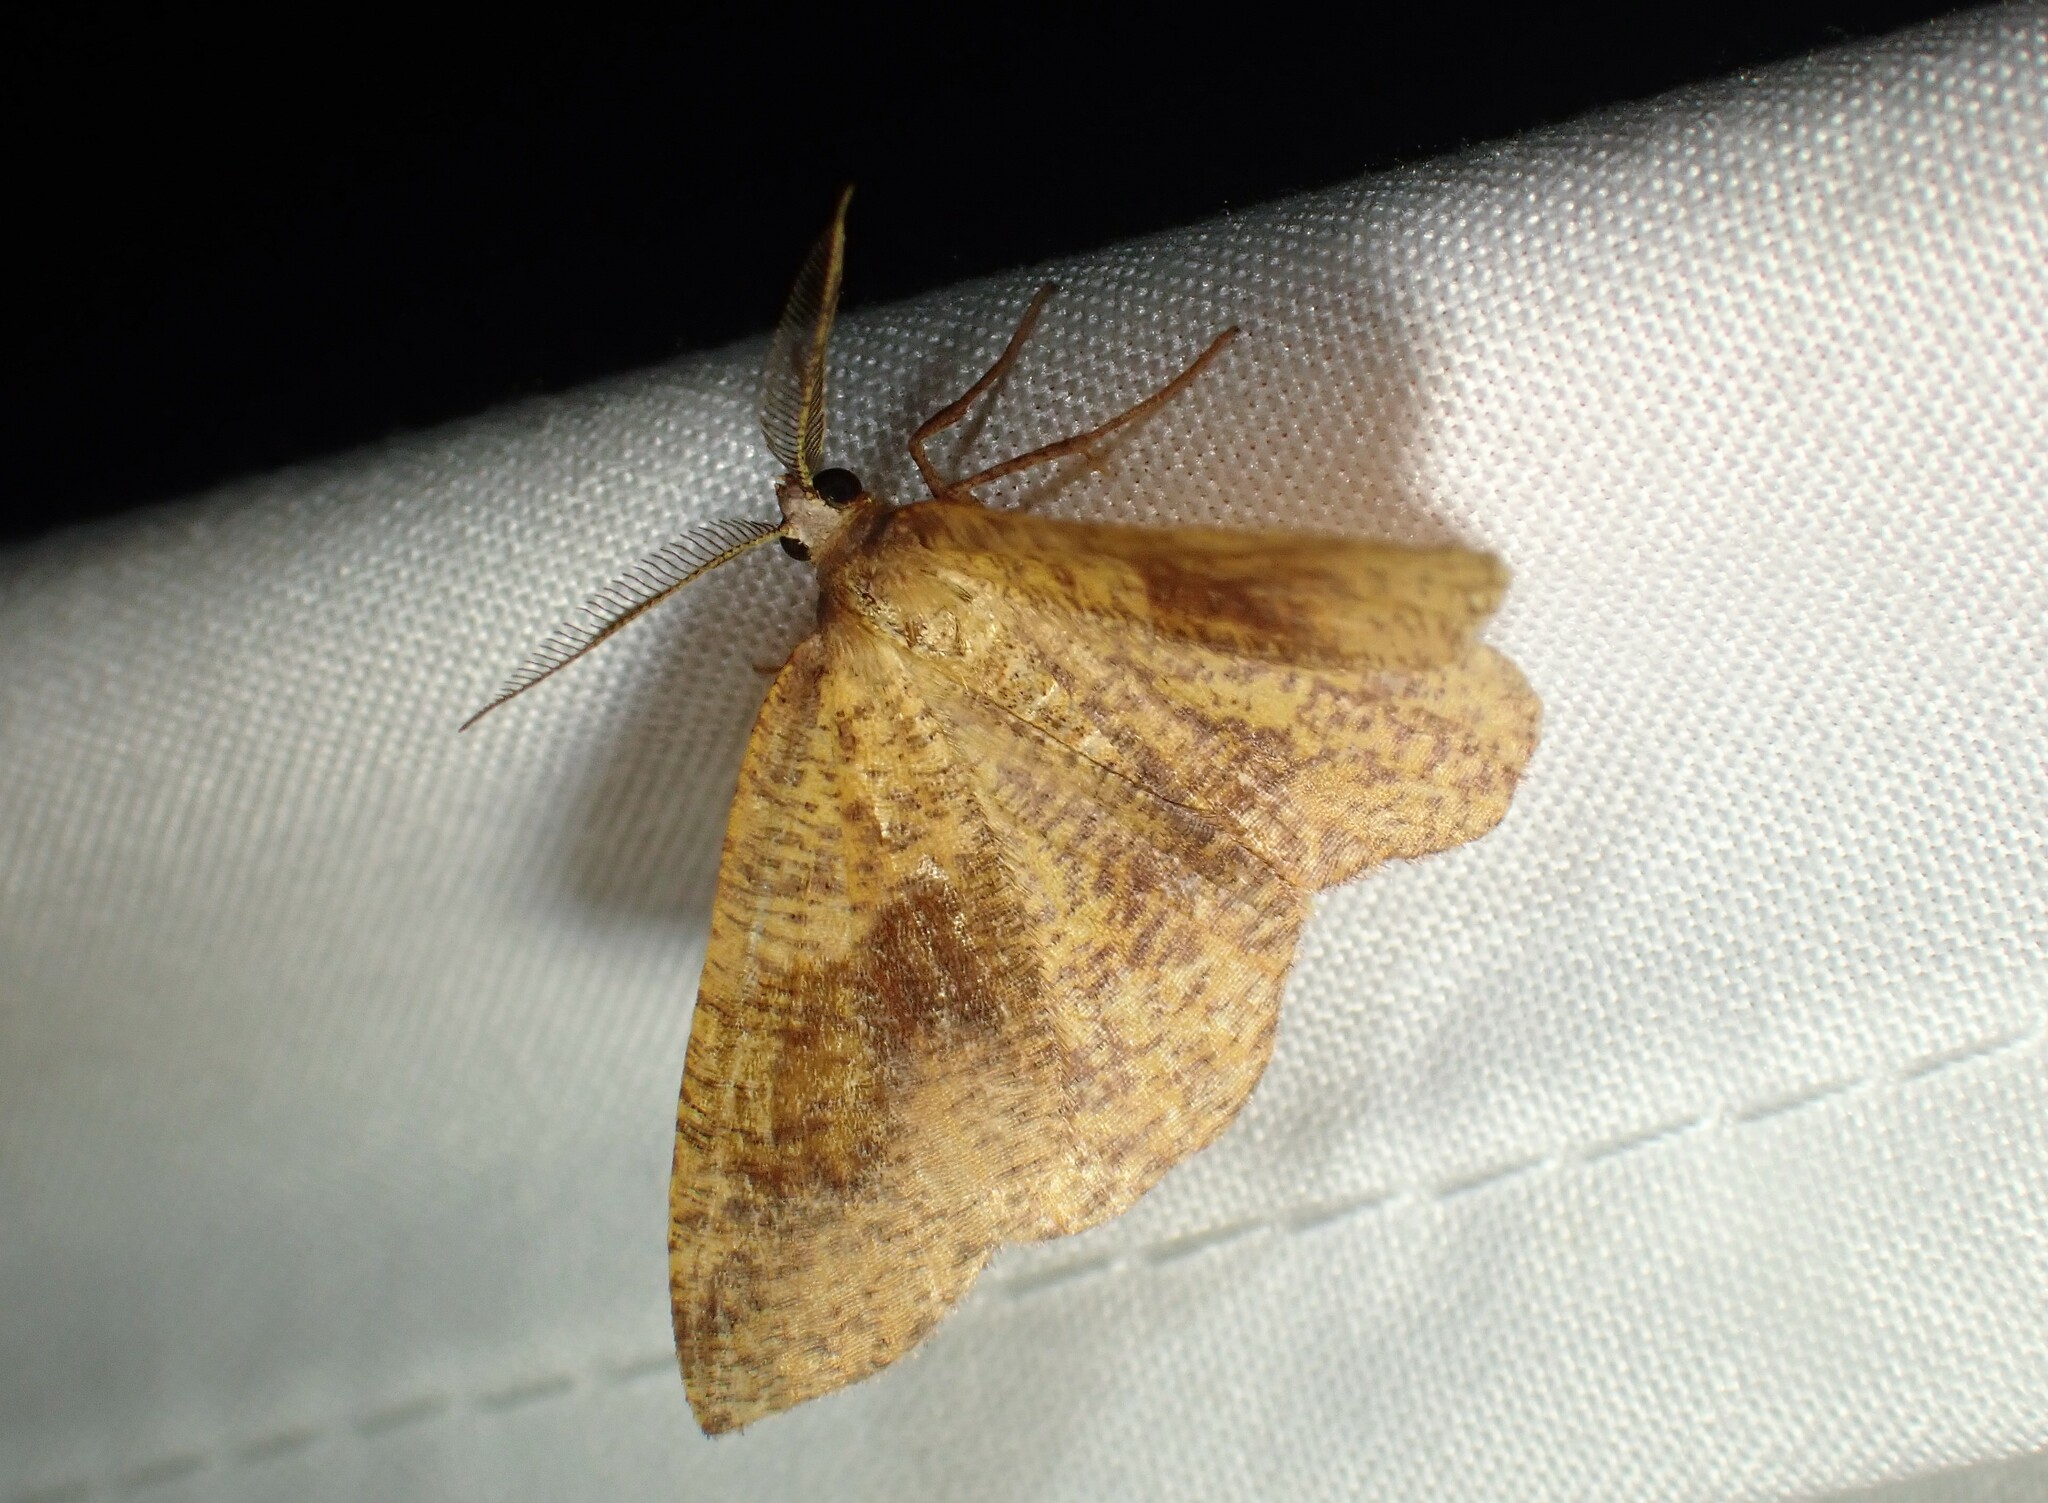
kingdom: Animalia
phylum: Arthropoda
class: Insecta
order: Lepidoptera
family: Geometridae
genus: Plagodis
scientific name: Plagodis pulveraria
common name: Barred umber
